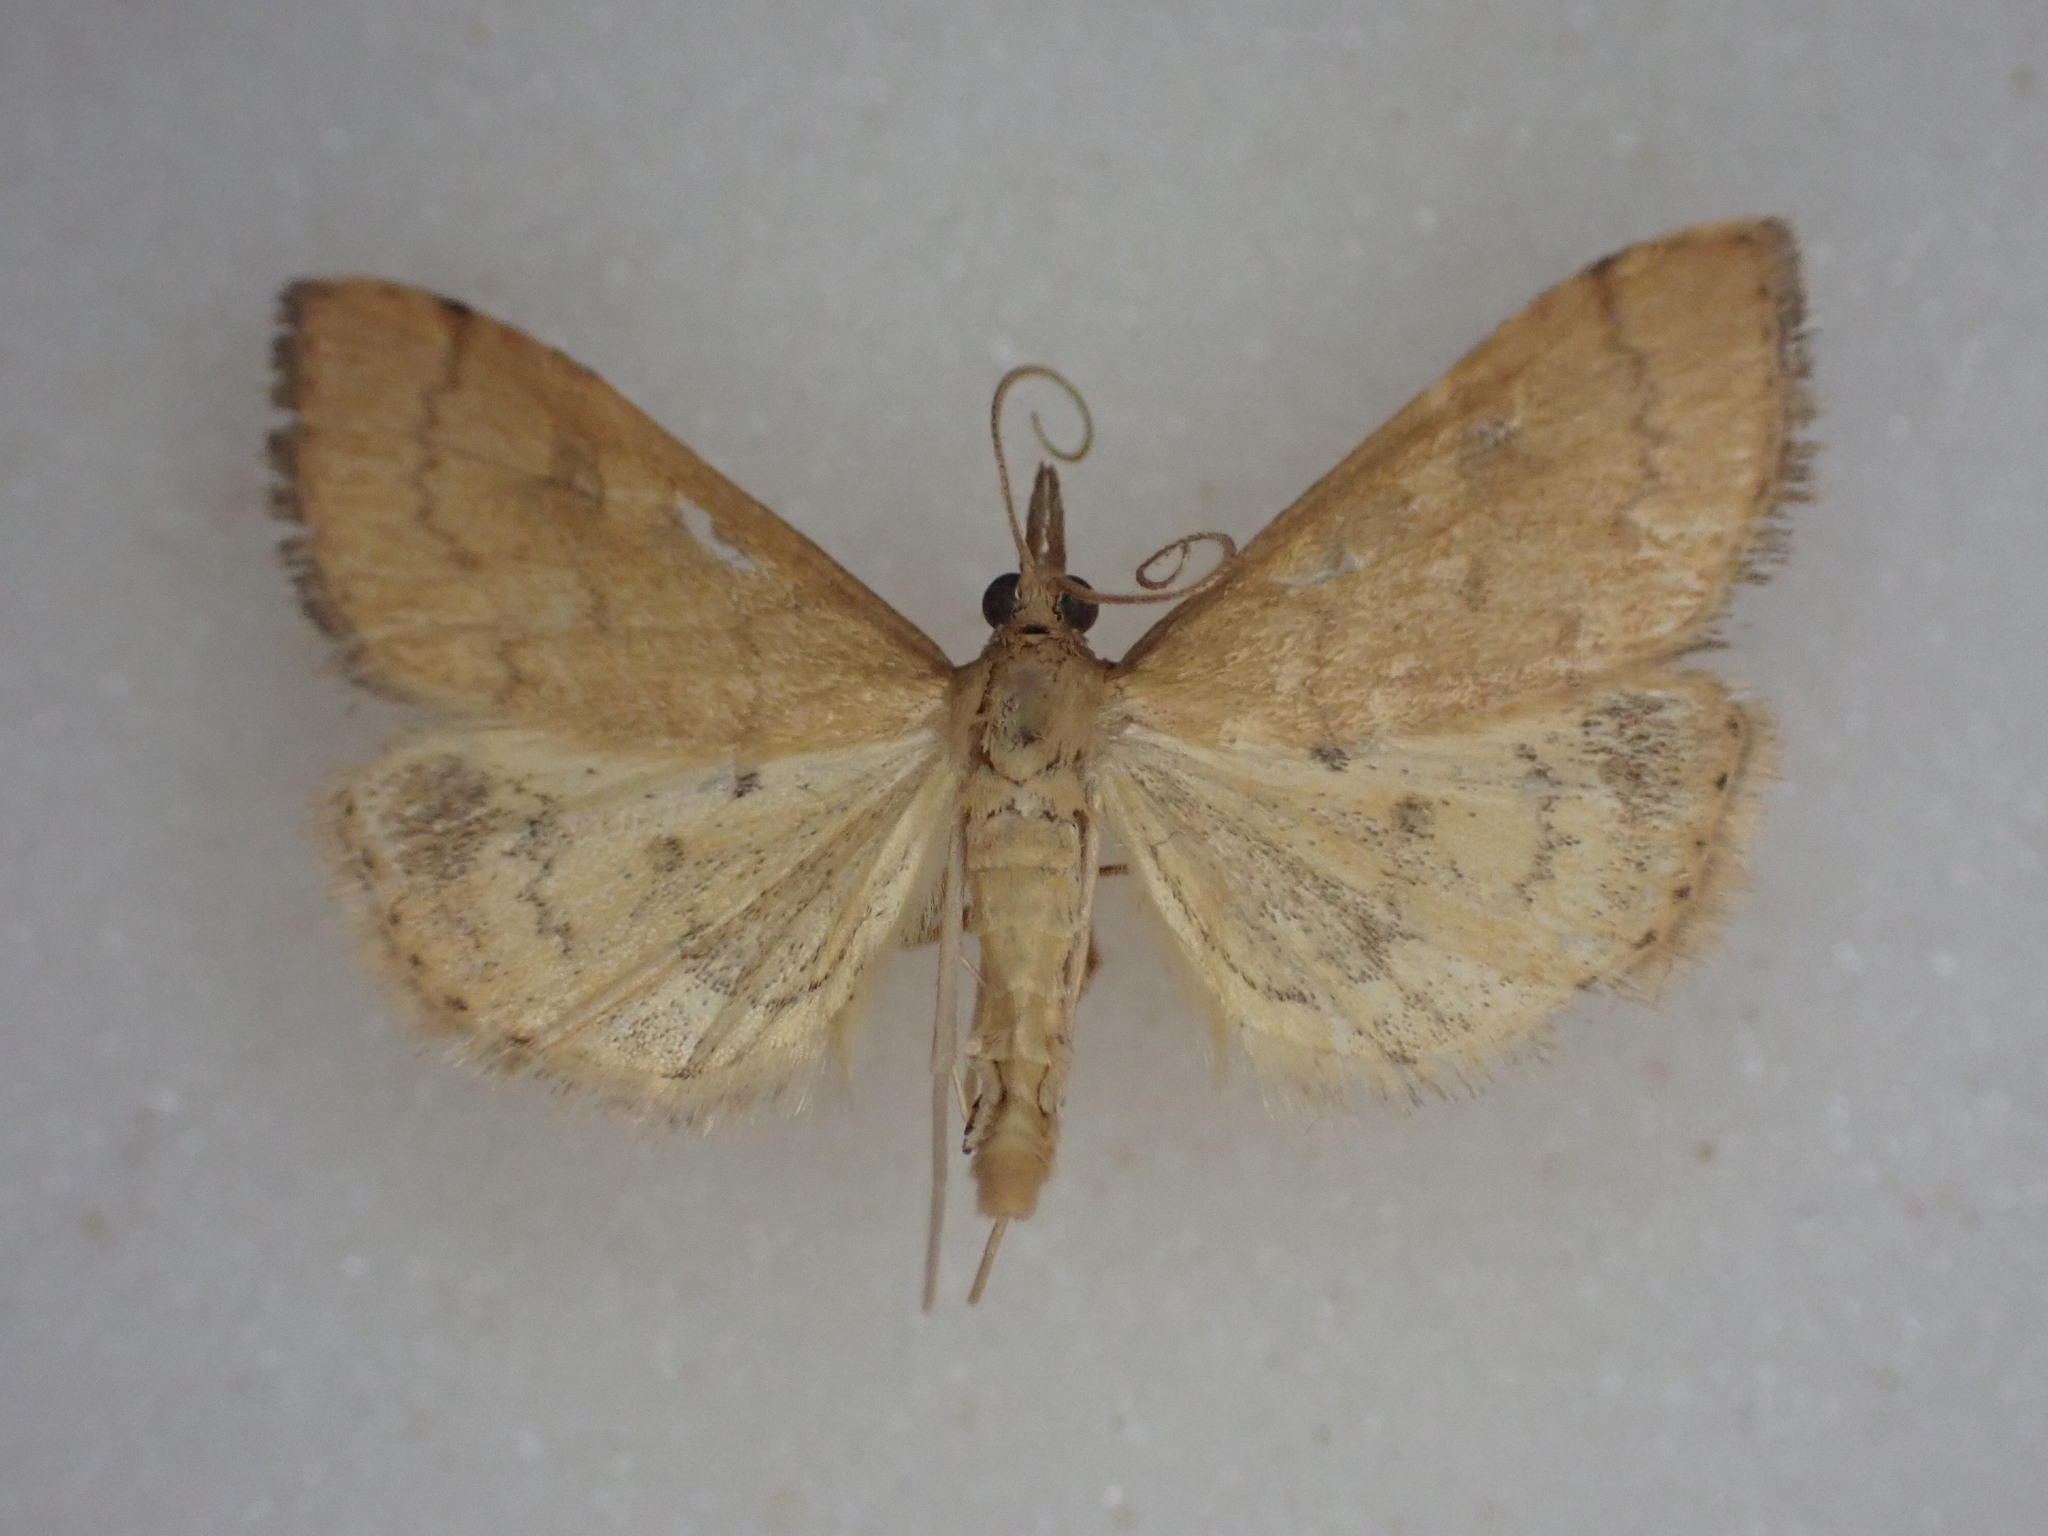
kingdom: Animalia
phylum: Arthropoda
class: Insecta
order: Lepidoptera
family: Crambidae
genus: Udea
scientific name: Udea Mnesictena flavidalis
